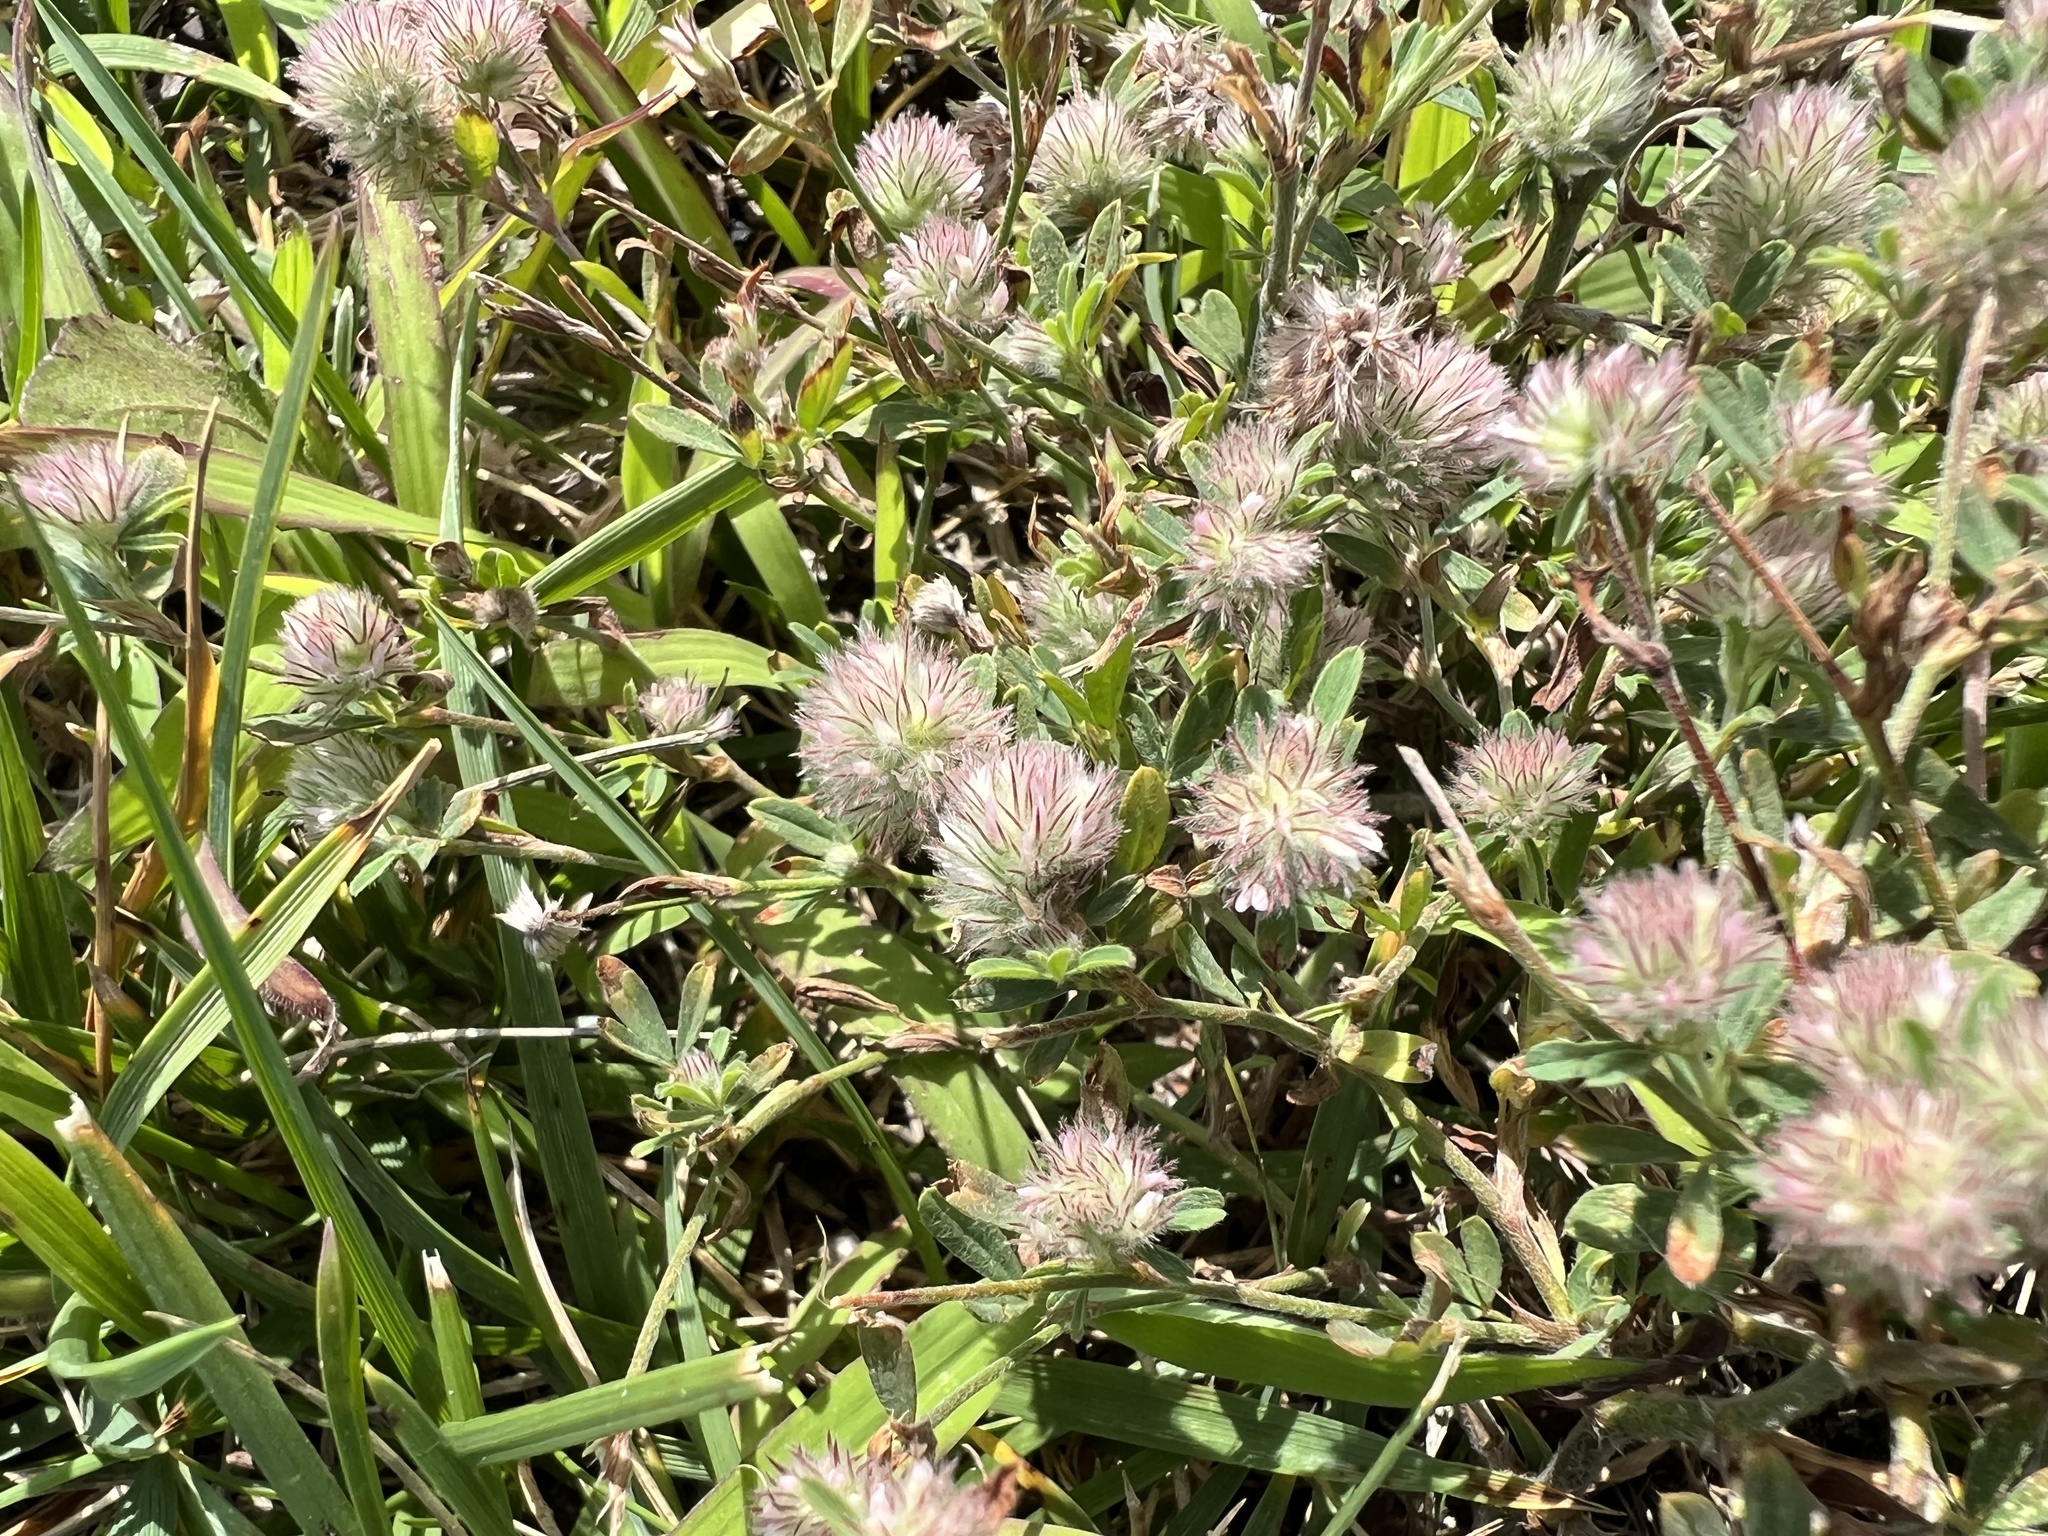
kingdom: Plantae
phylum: Tracheophyta
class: Magnoliopsida
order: Fabales
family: Fabaceae
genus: Trifolium
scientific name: Trifolium arvense
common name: Hare's-foot clover
